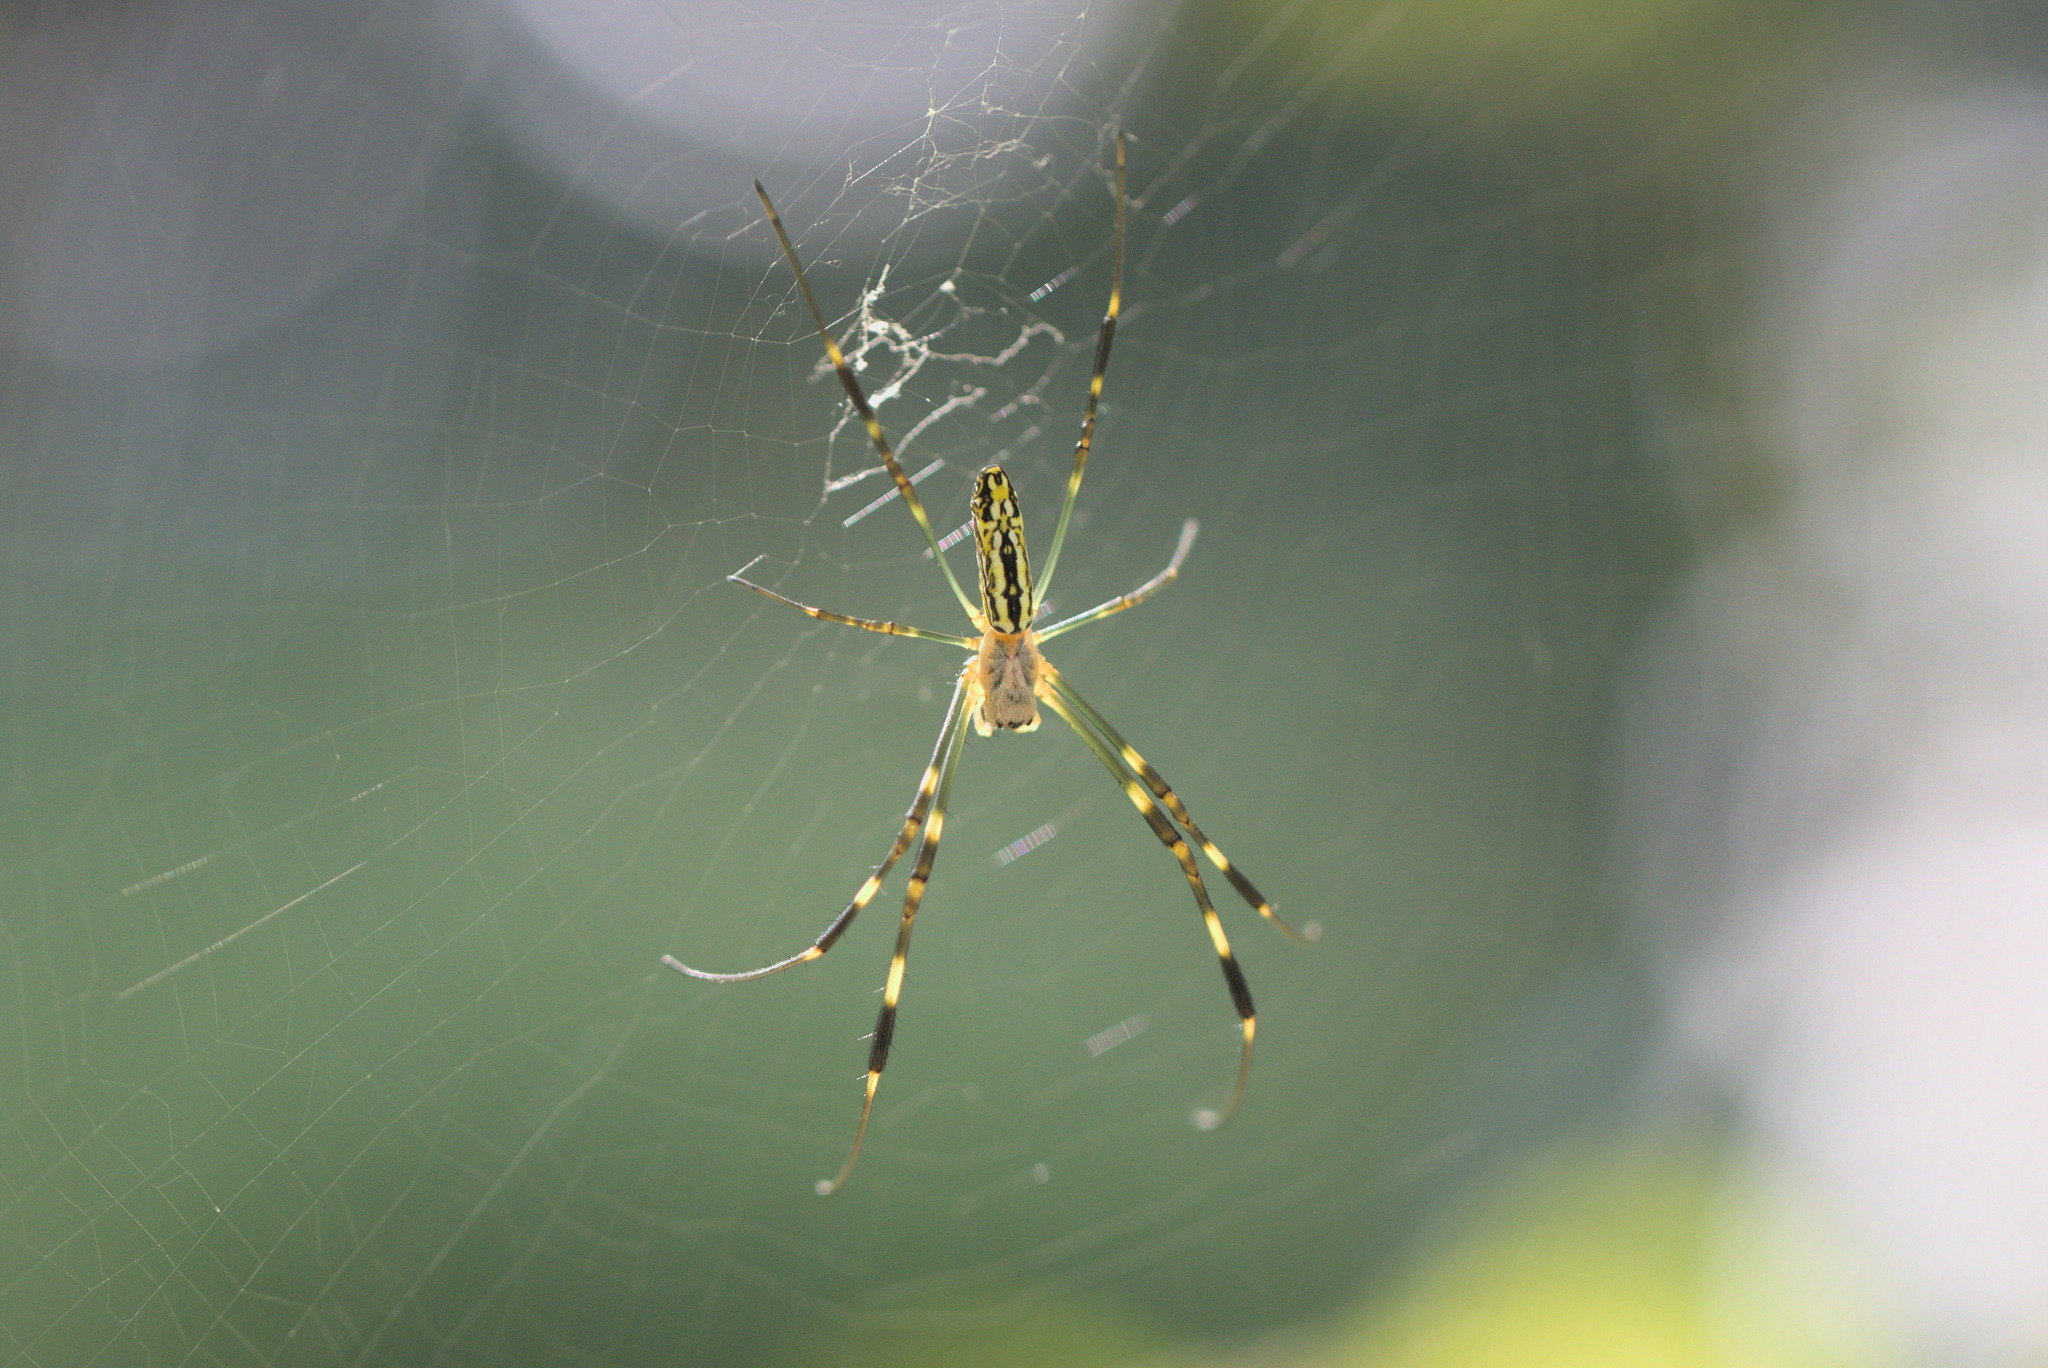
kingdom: Animalia
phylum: Arthropoda
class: Arachnida
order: Araneae
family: Araneidae
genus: Trichonephila
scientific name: Trichonephila clavata
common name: Jorō spider
